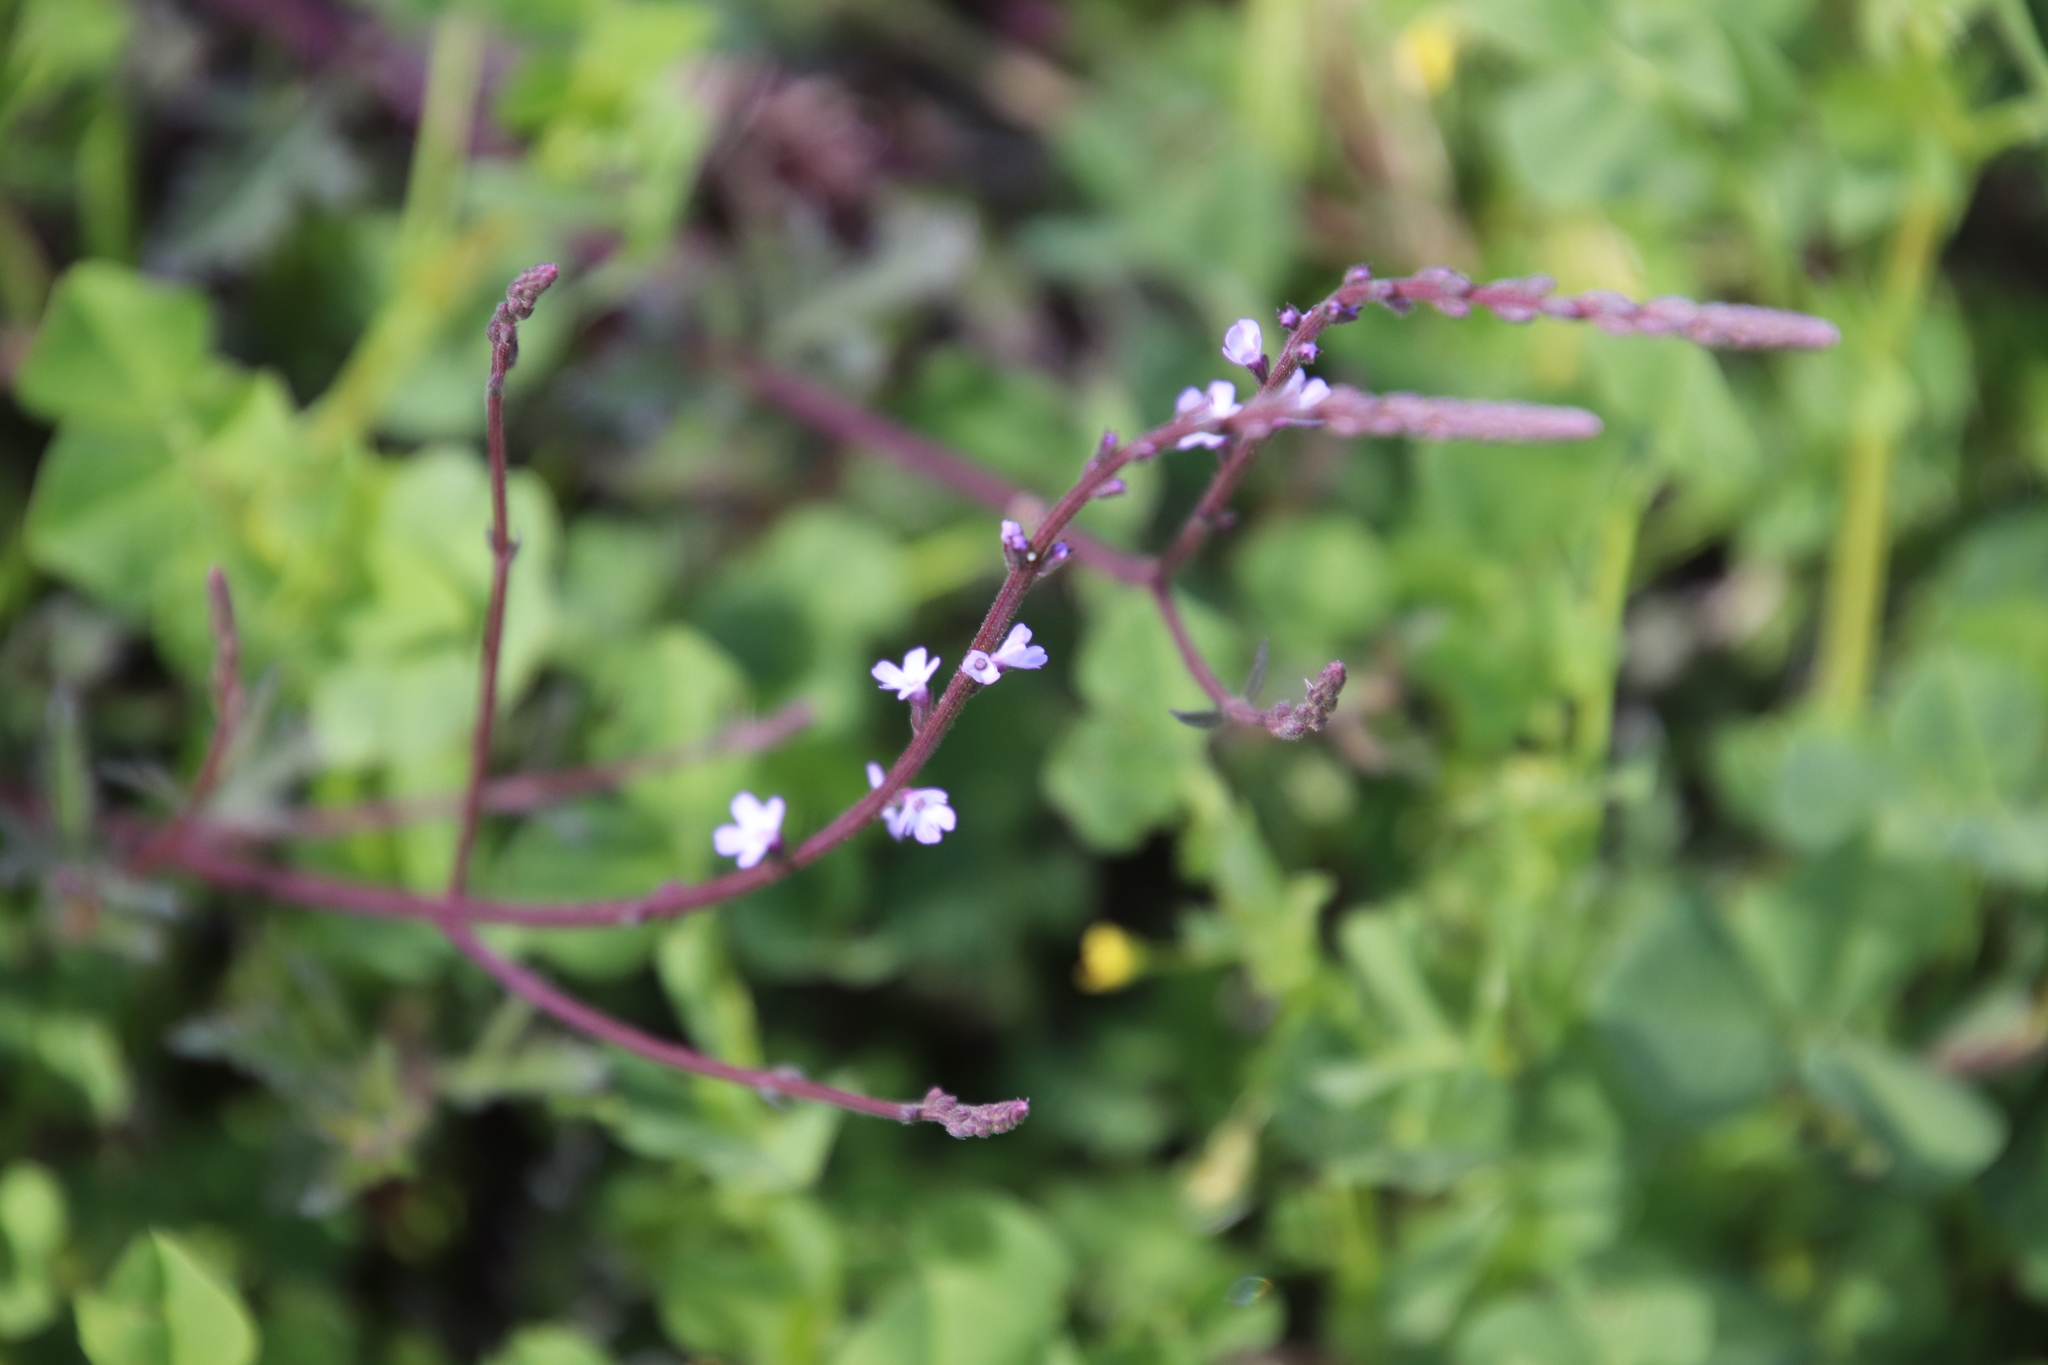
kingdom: Plantae
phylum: Tracheophyta
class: Magnoliopsida
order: Lamiales
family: Verbenaceae
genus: Verbena
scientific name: Verbena menthifolia
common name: Mint-leaf vervain
